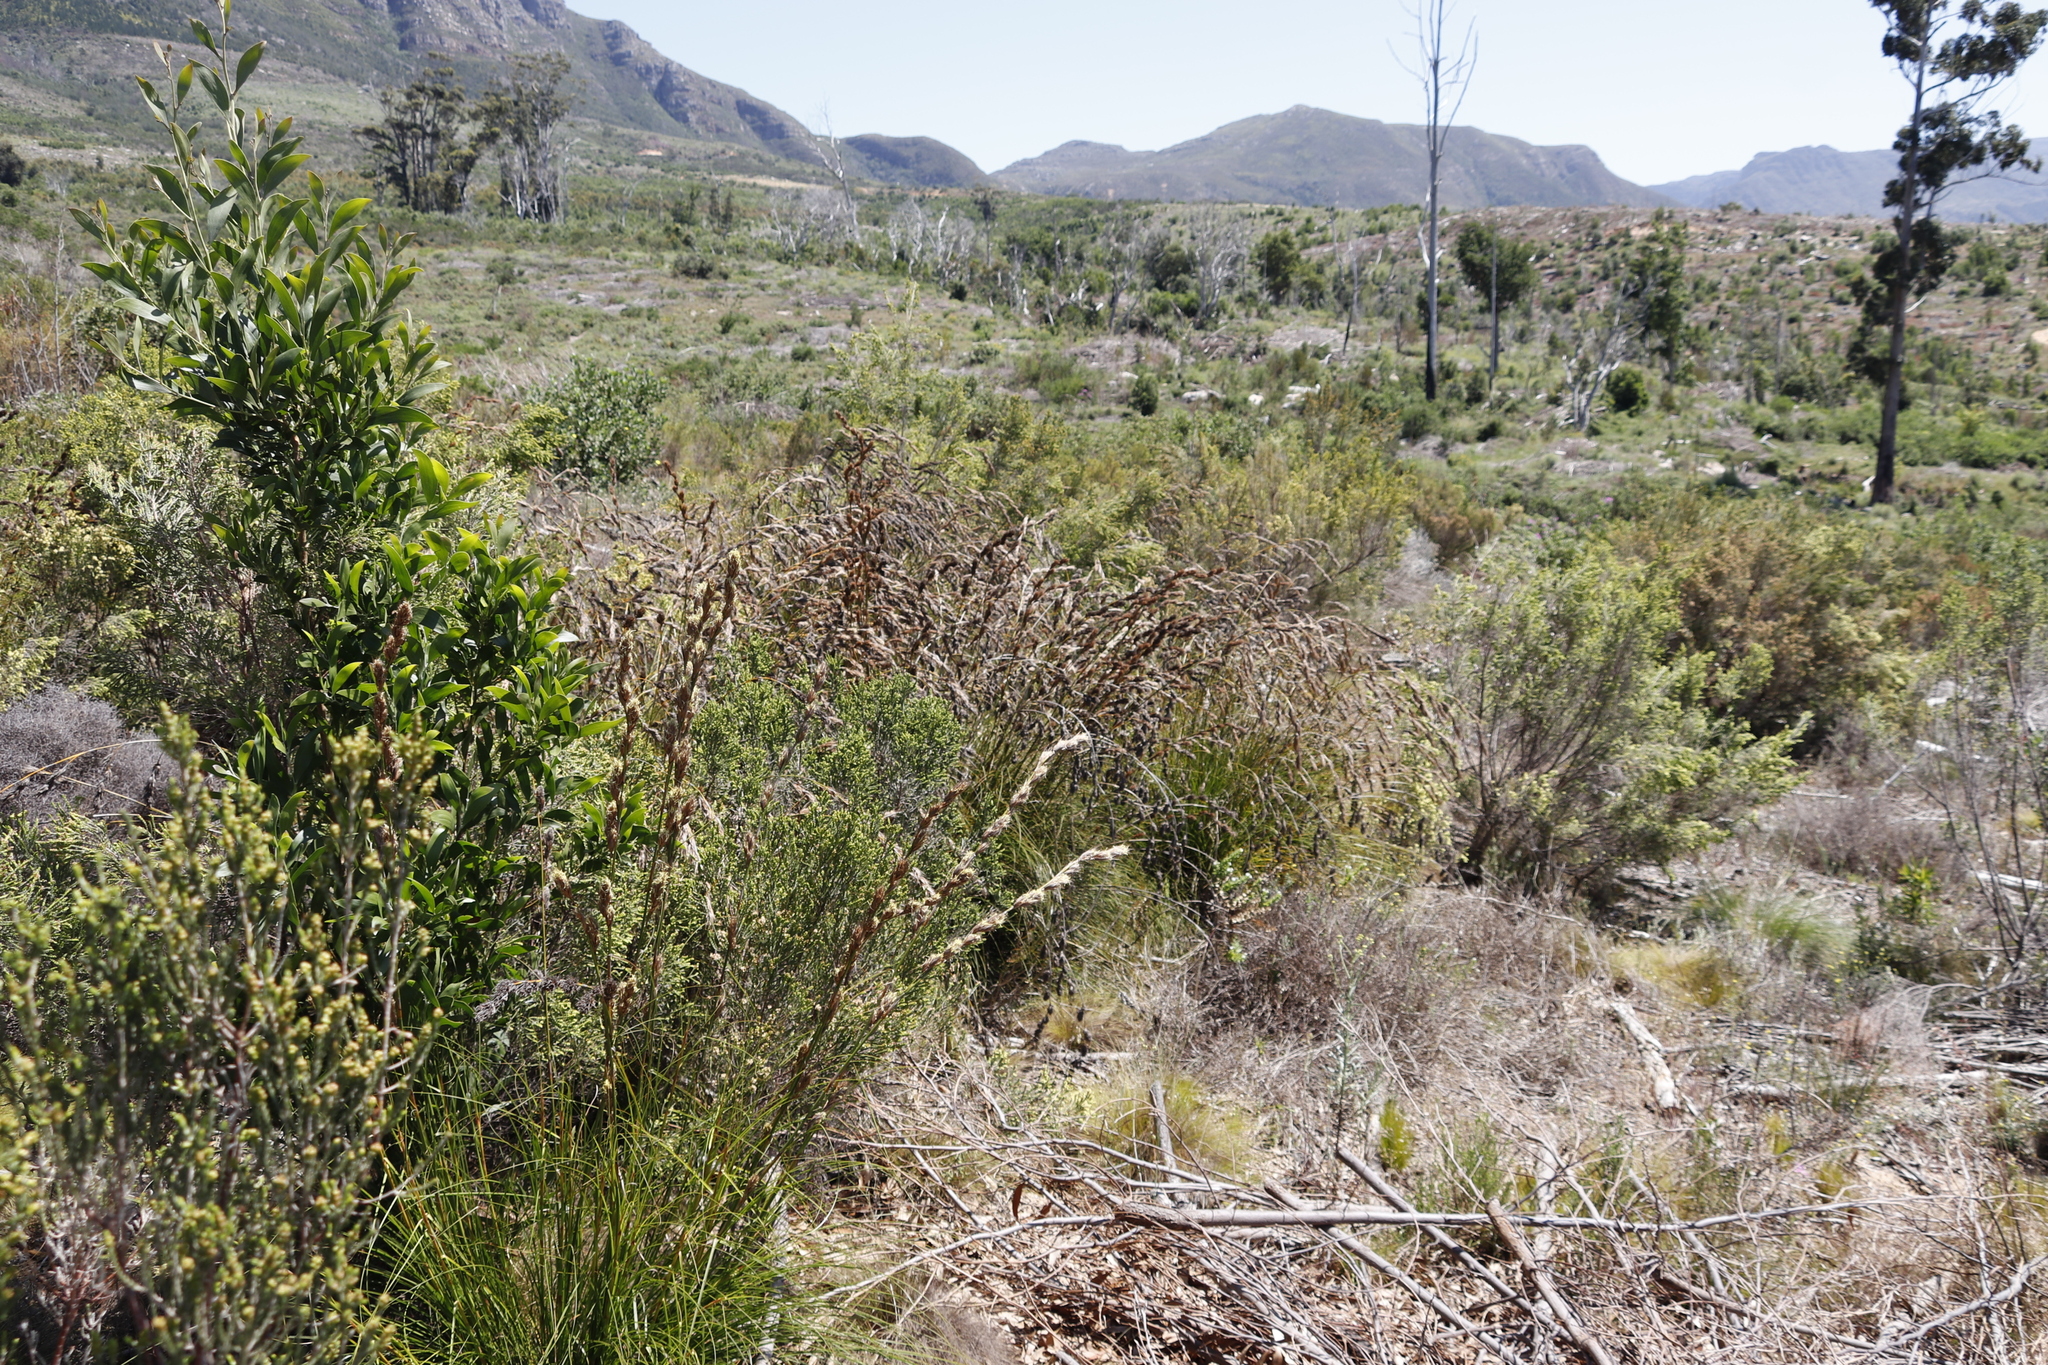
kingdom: Plantae
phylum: Tracheophyta
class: Liliopsida
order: Poales
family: Cyperaceae
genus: Tetraria
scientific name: Tetraria bromoides
